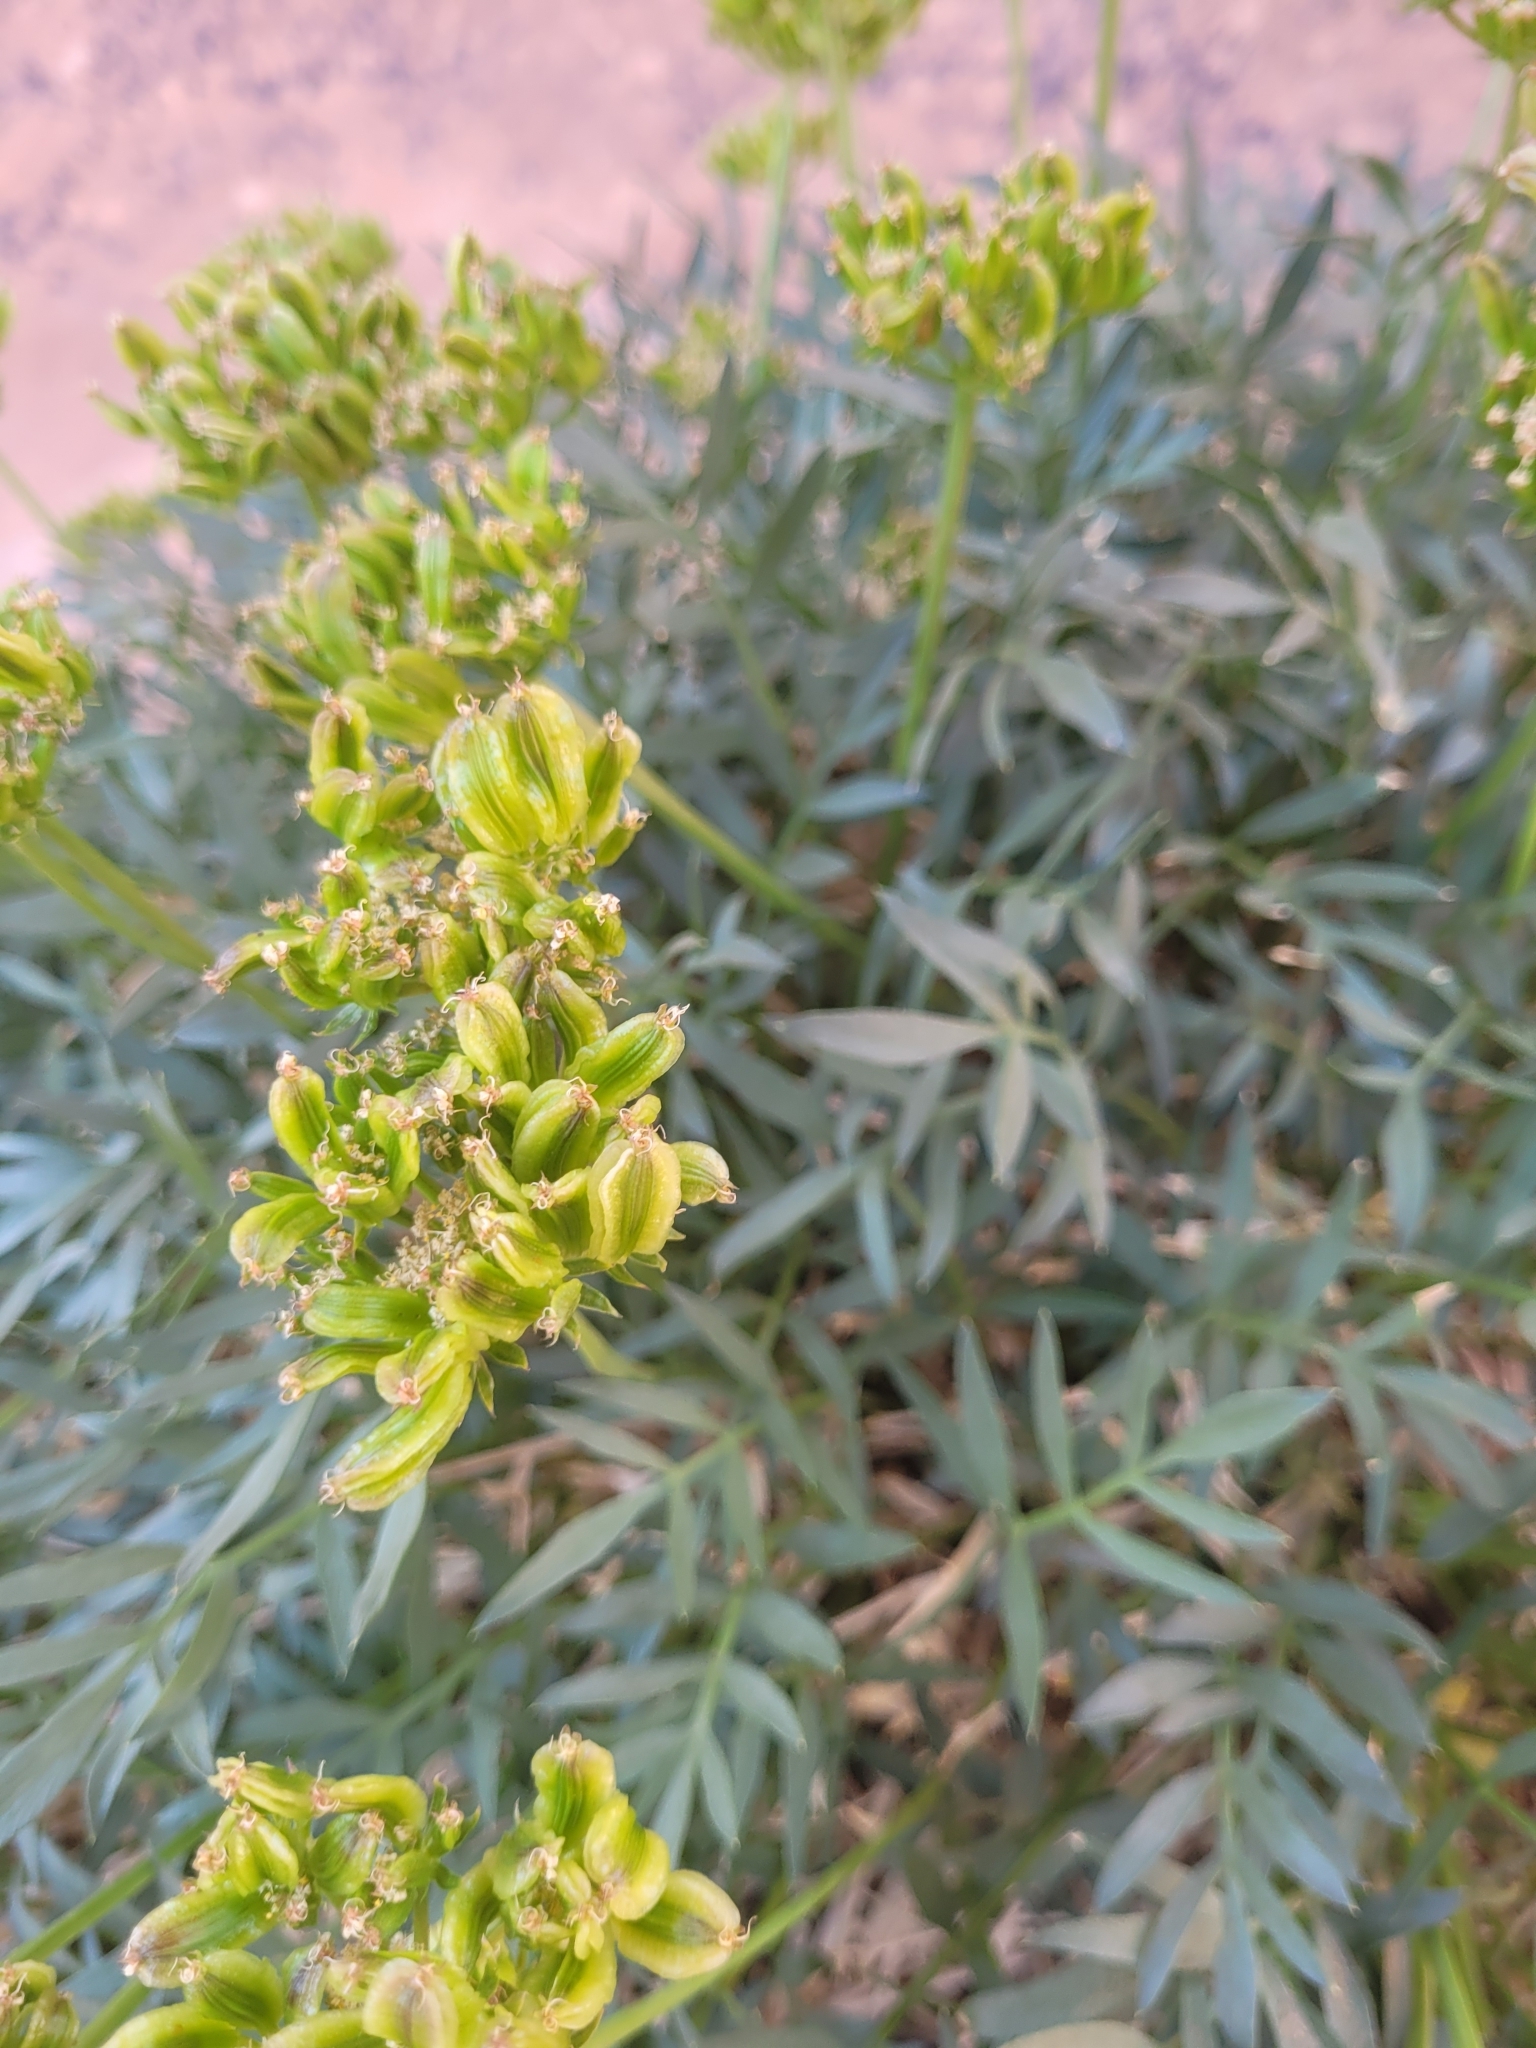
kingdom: Plantae
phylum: Tracheophyta
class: Magnoliopsida
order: Apiales
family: Apiaceae
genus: Lomatium
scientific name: Lomatium latilobum
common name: Canyonlands lomatium
